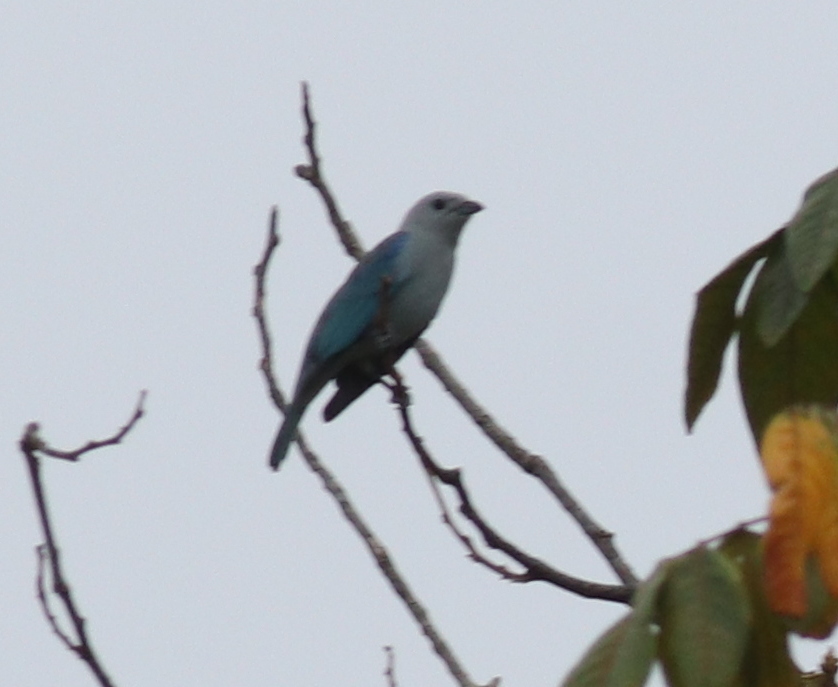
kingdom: Animalia
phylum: Chordata
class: Aves
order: Passeriformes
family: Thraupidae
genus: Thraupis
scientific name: Thraupis episcopus
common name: Blue-grey tanager
